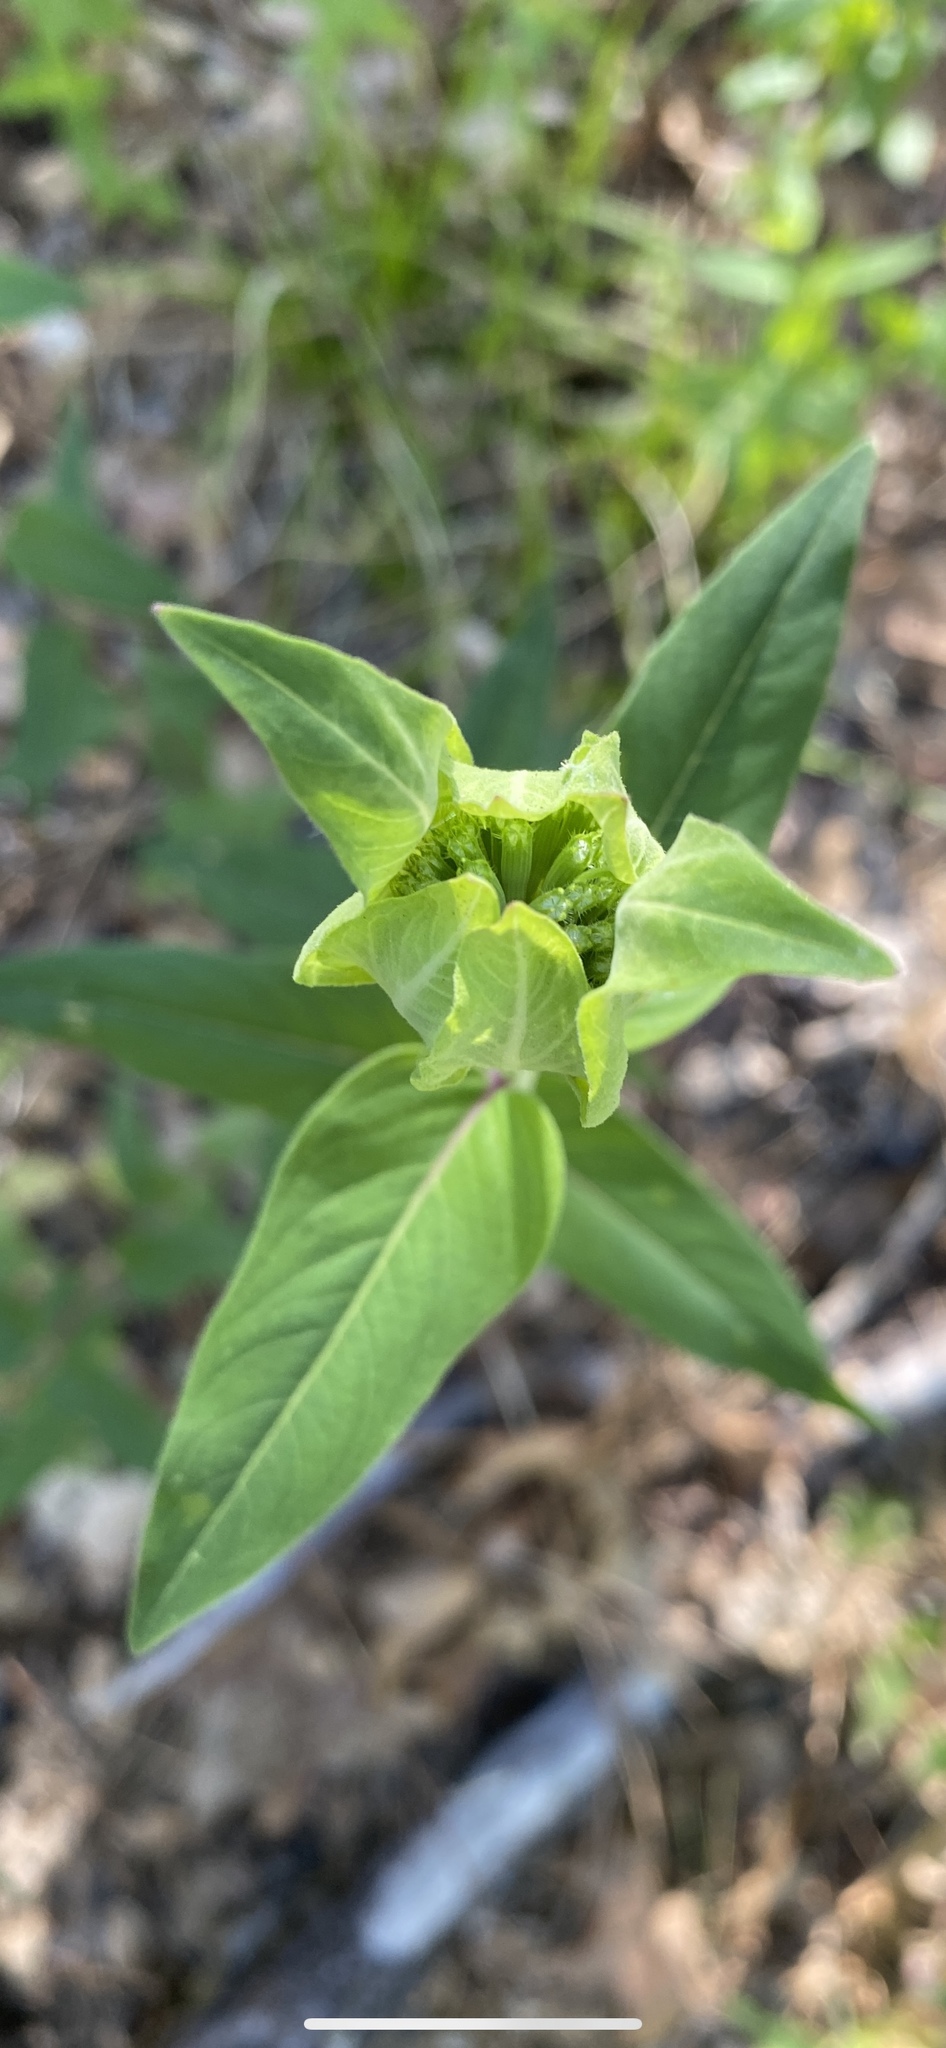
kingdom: Plantae
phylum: Tracheophyta
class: Magnoliopsida
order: Lamiales
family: Lamiaceae
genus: Monarda
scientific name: Monarda fistulosa
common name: Purple beebalm
